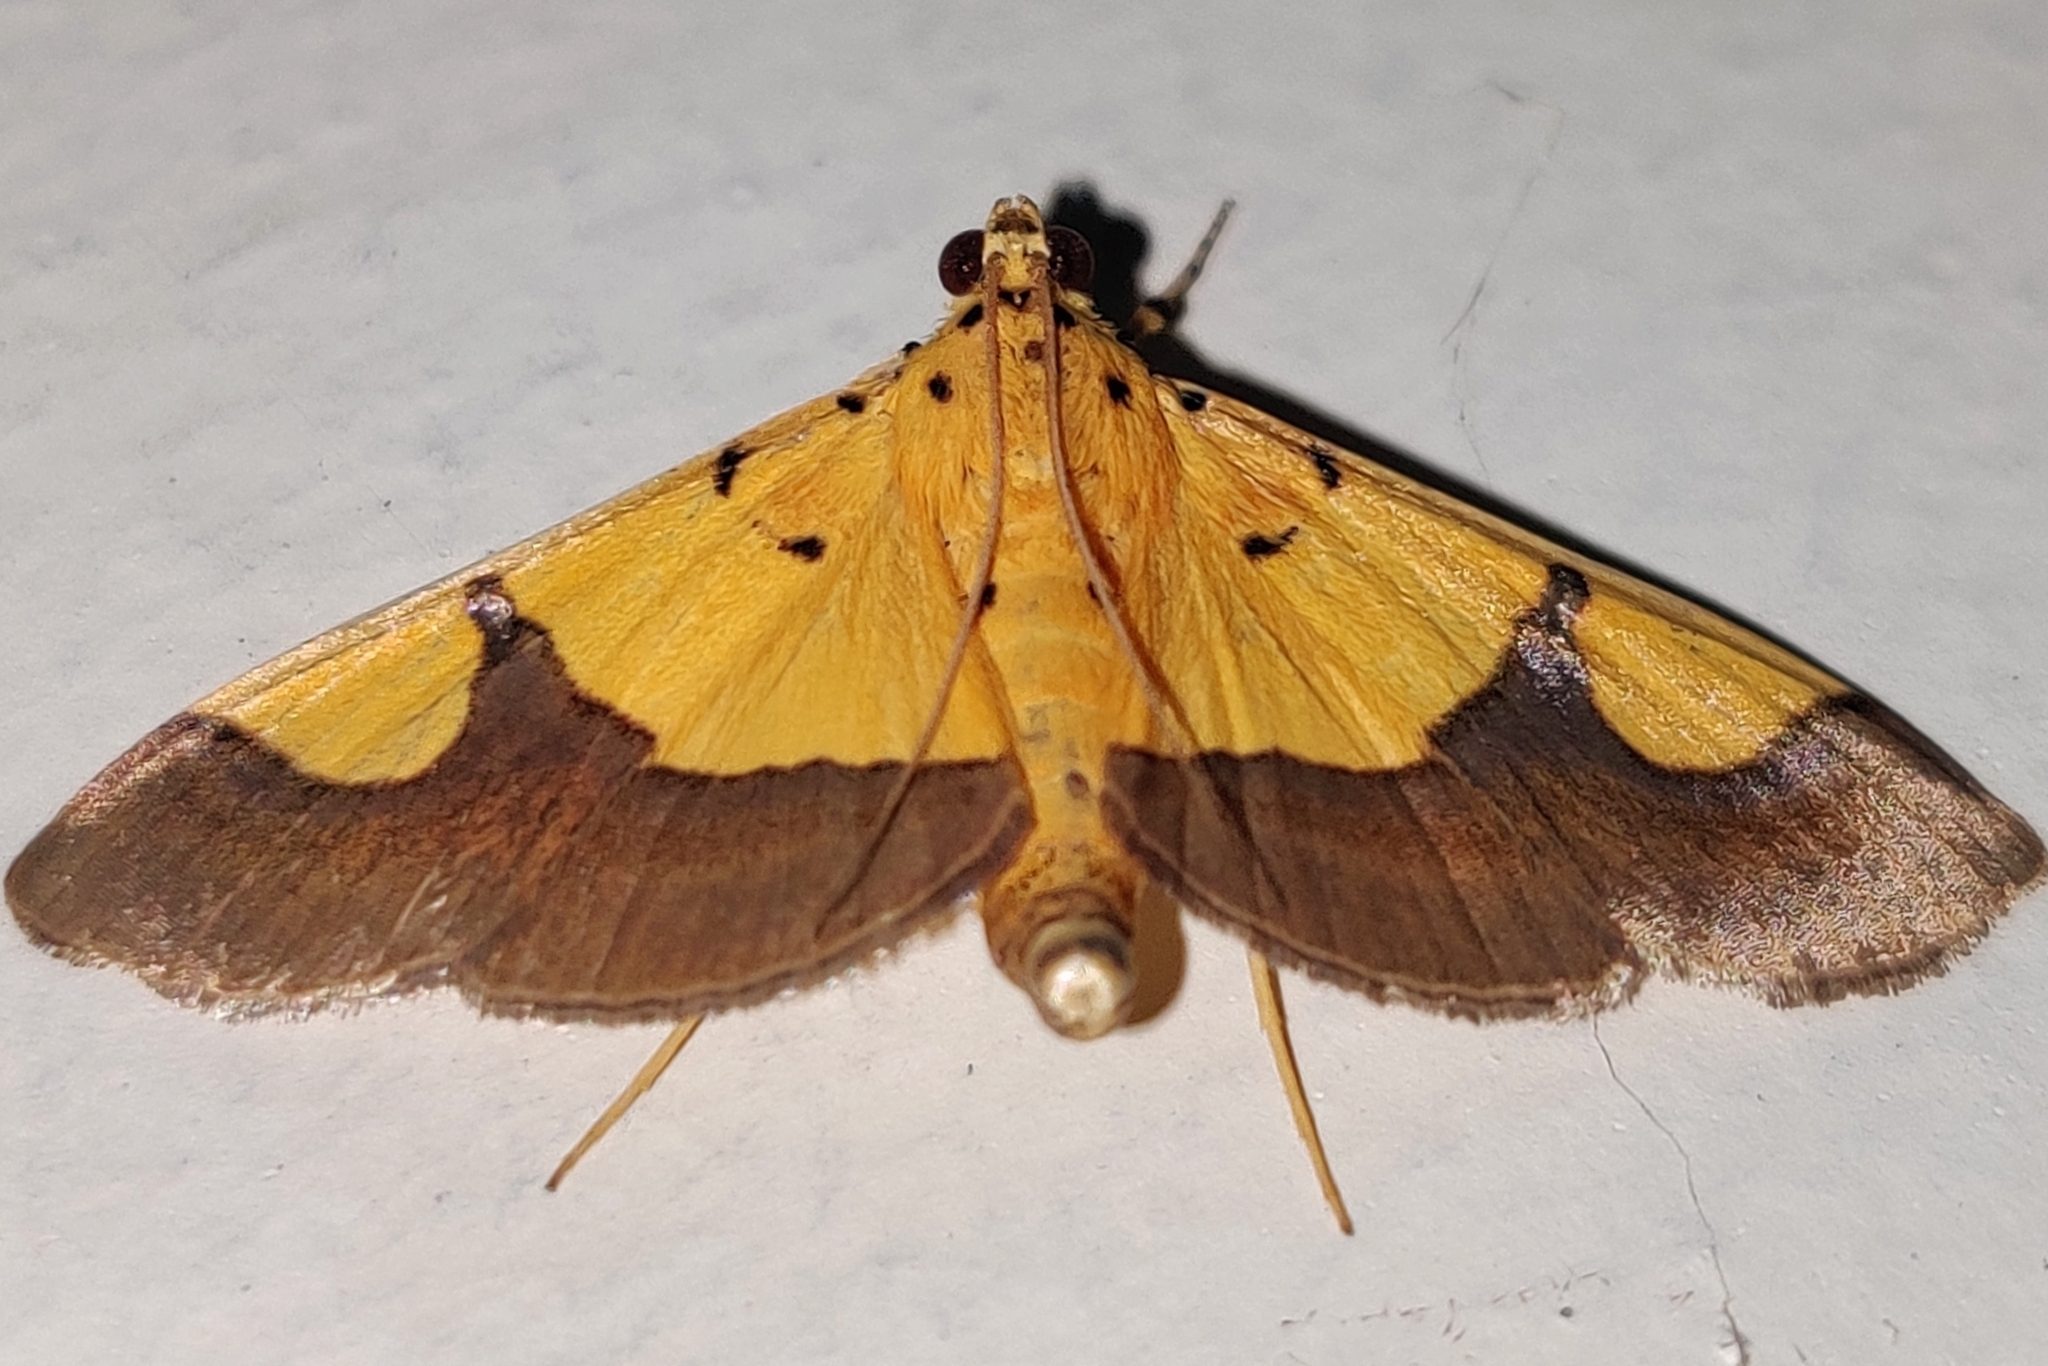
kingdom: Animalia
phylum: Arthropoda
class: Insecta
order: Lepidoptera
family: Crambidae
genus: Botyodes
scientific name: Botyodes
